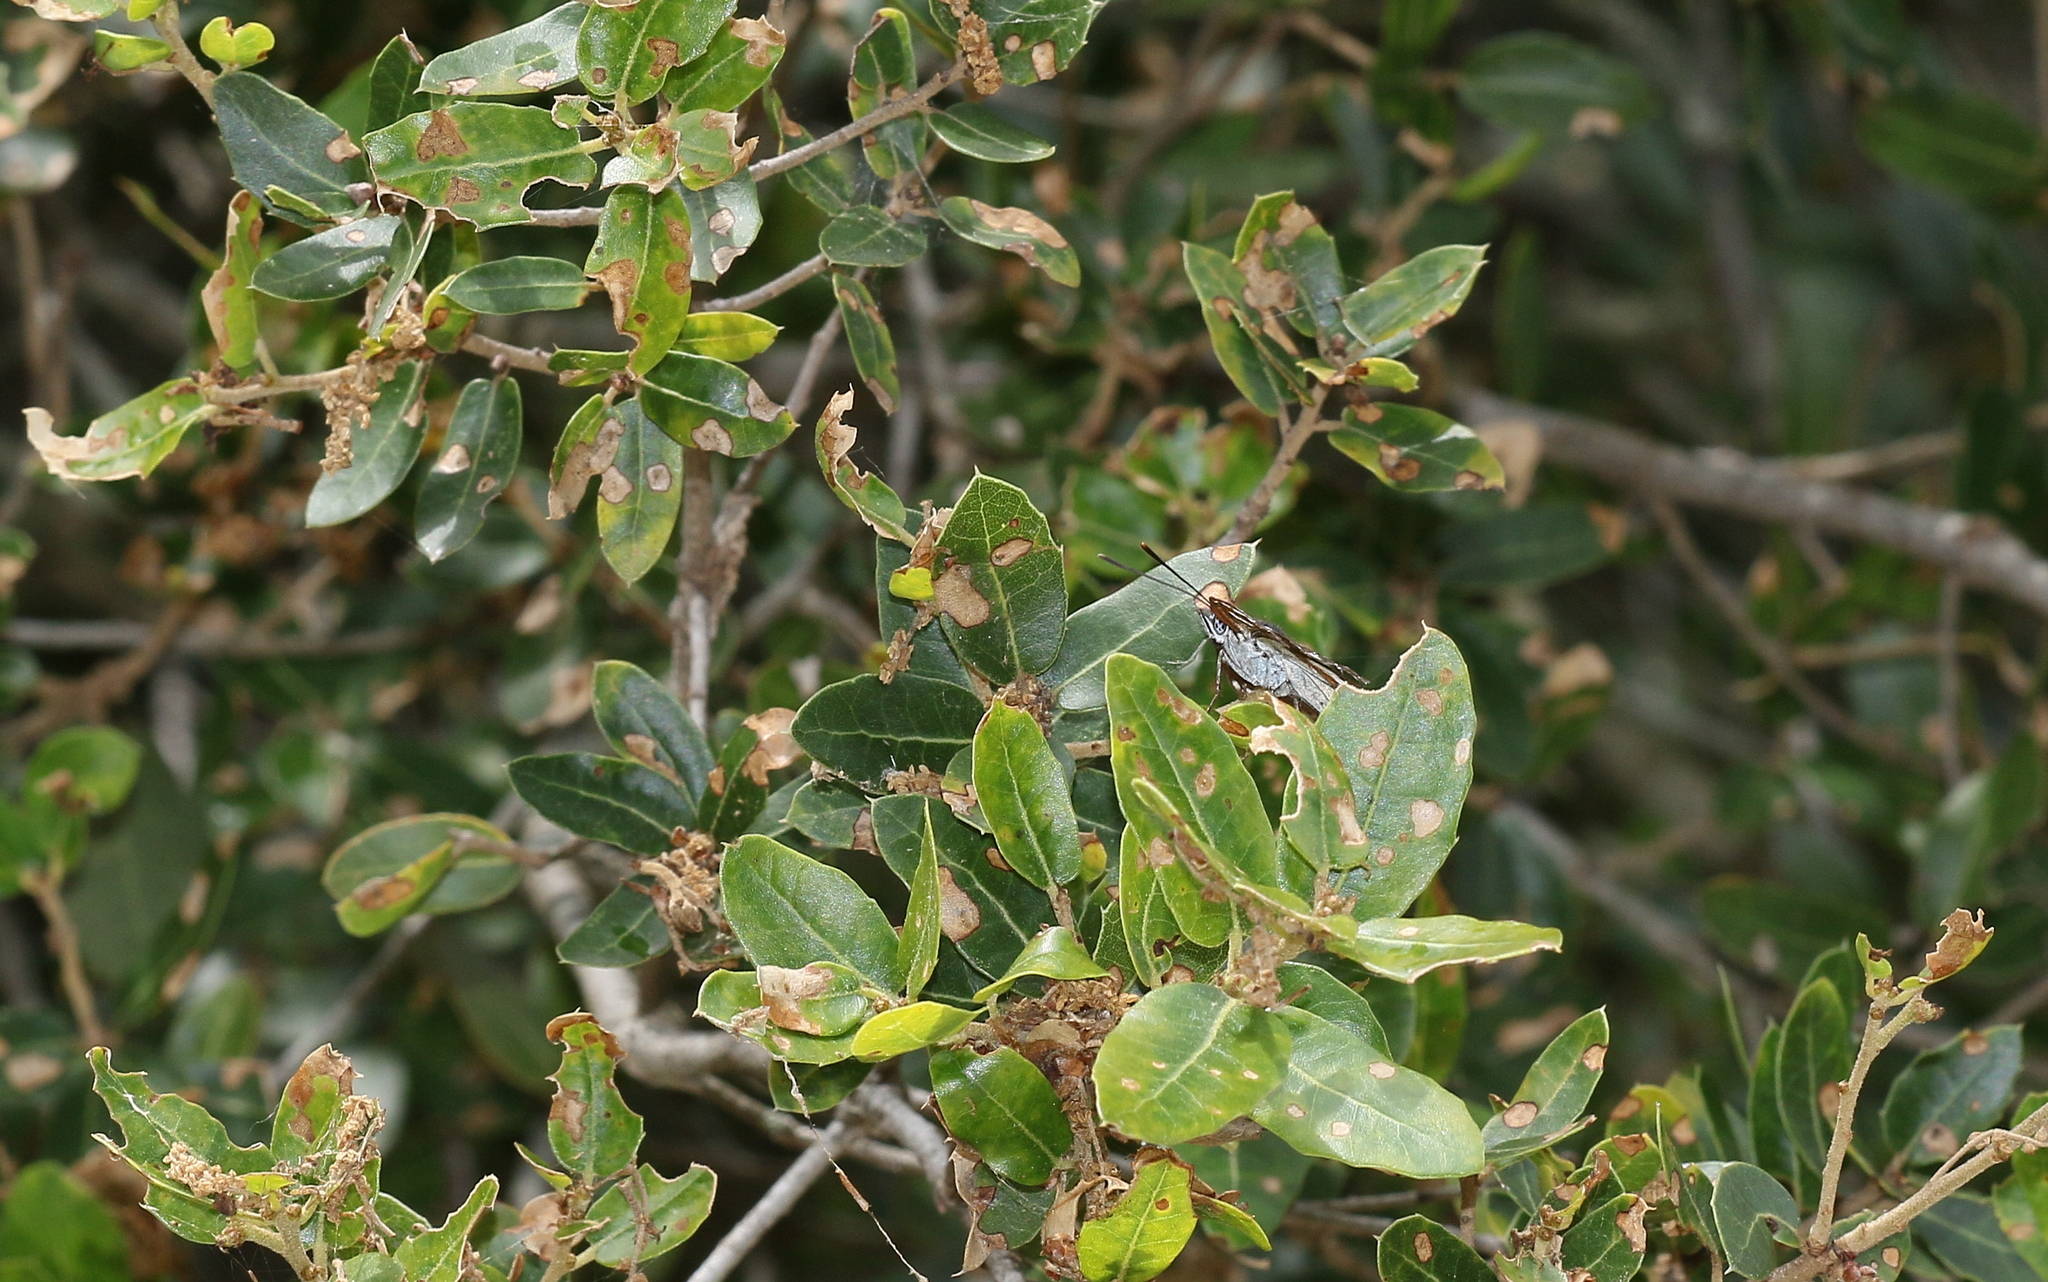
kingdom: Animalia
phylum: Arthropoda
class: Insecta
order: Lepidoptera
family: Nymphalidae
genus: Limenitis
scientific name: Limenitis reducta
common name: Southern white admiral
